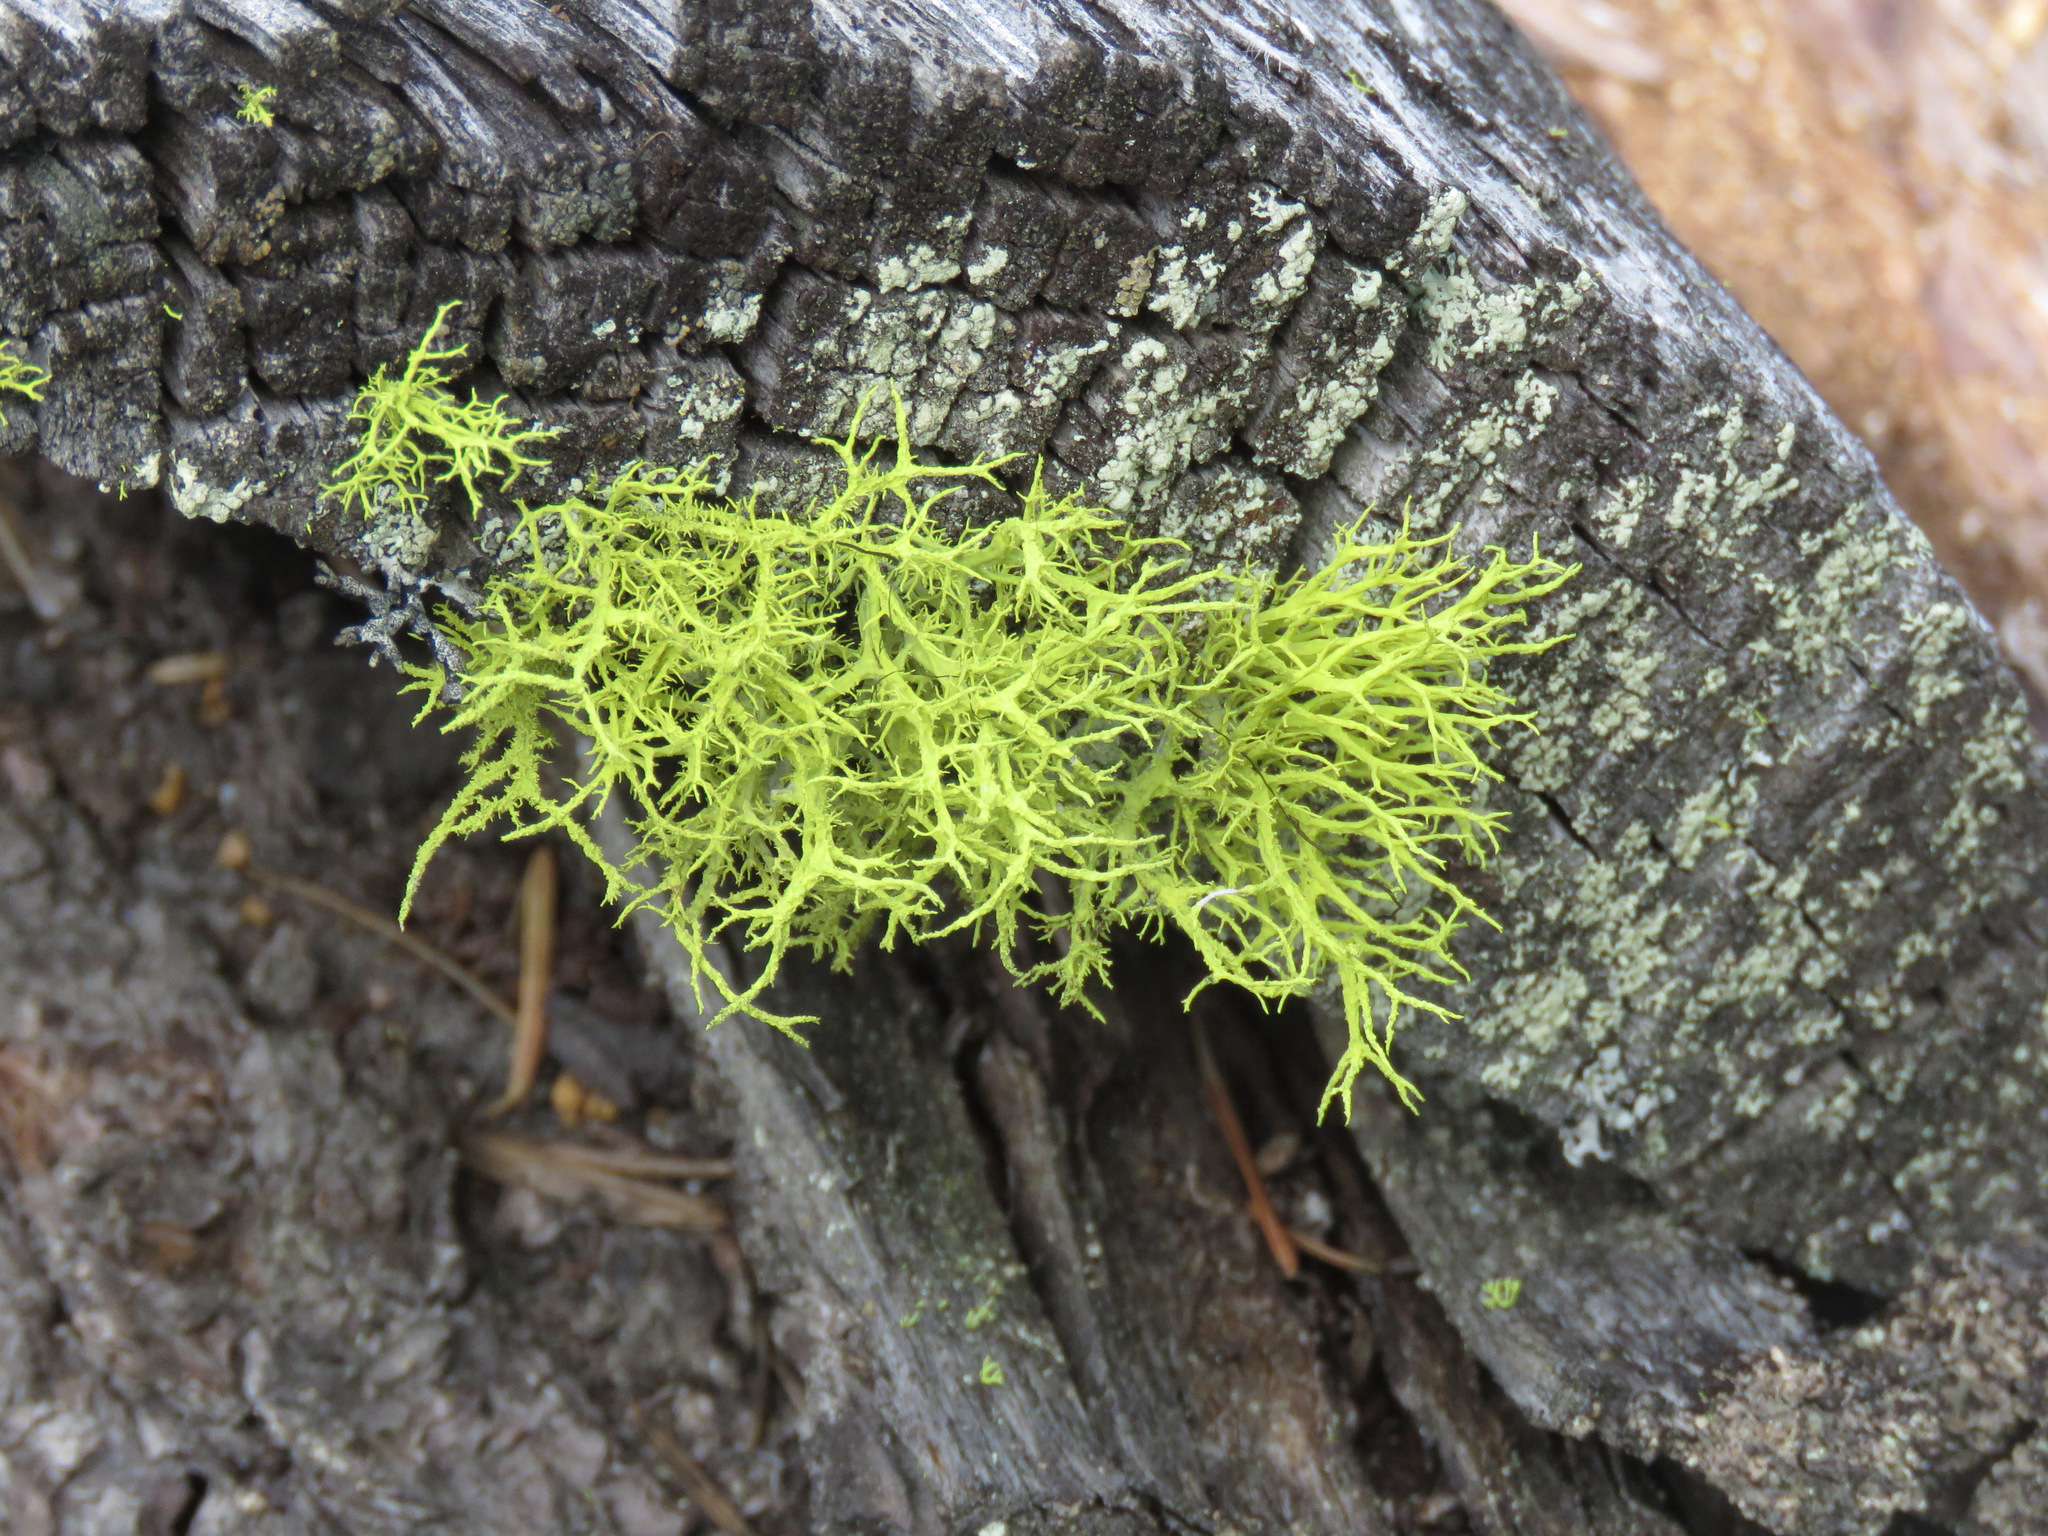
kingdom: Fungi
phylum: Ascomycota
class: Lecanoromycetes
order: Lecanorales
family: Parmeliaceae
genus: Letharia
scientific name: Letharia vulpina
